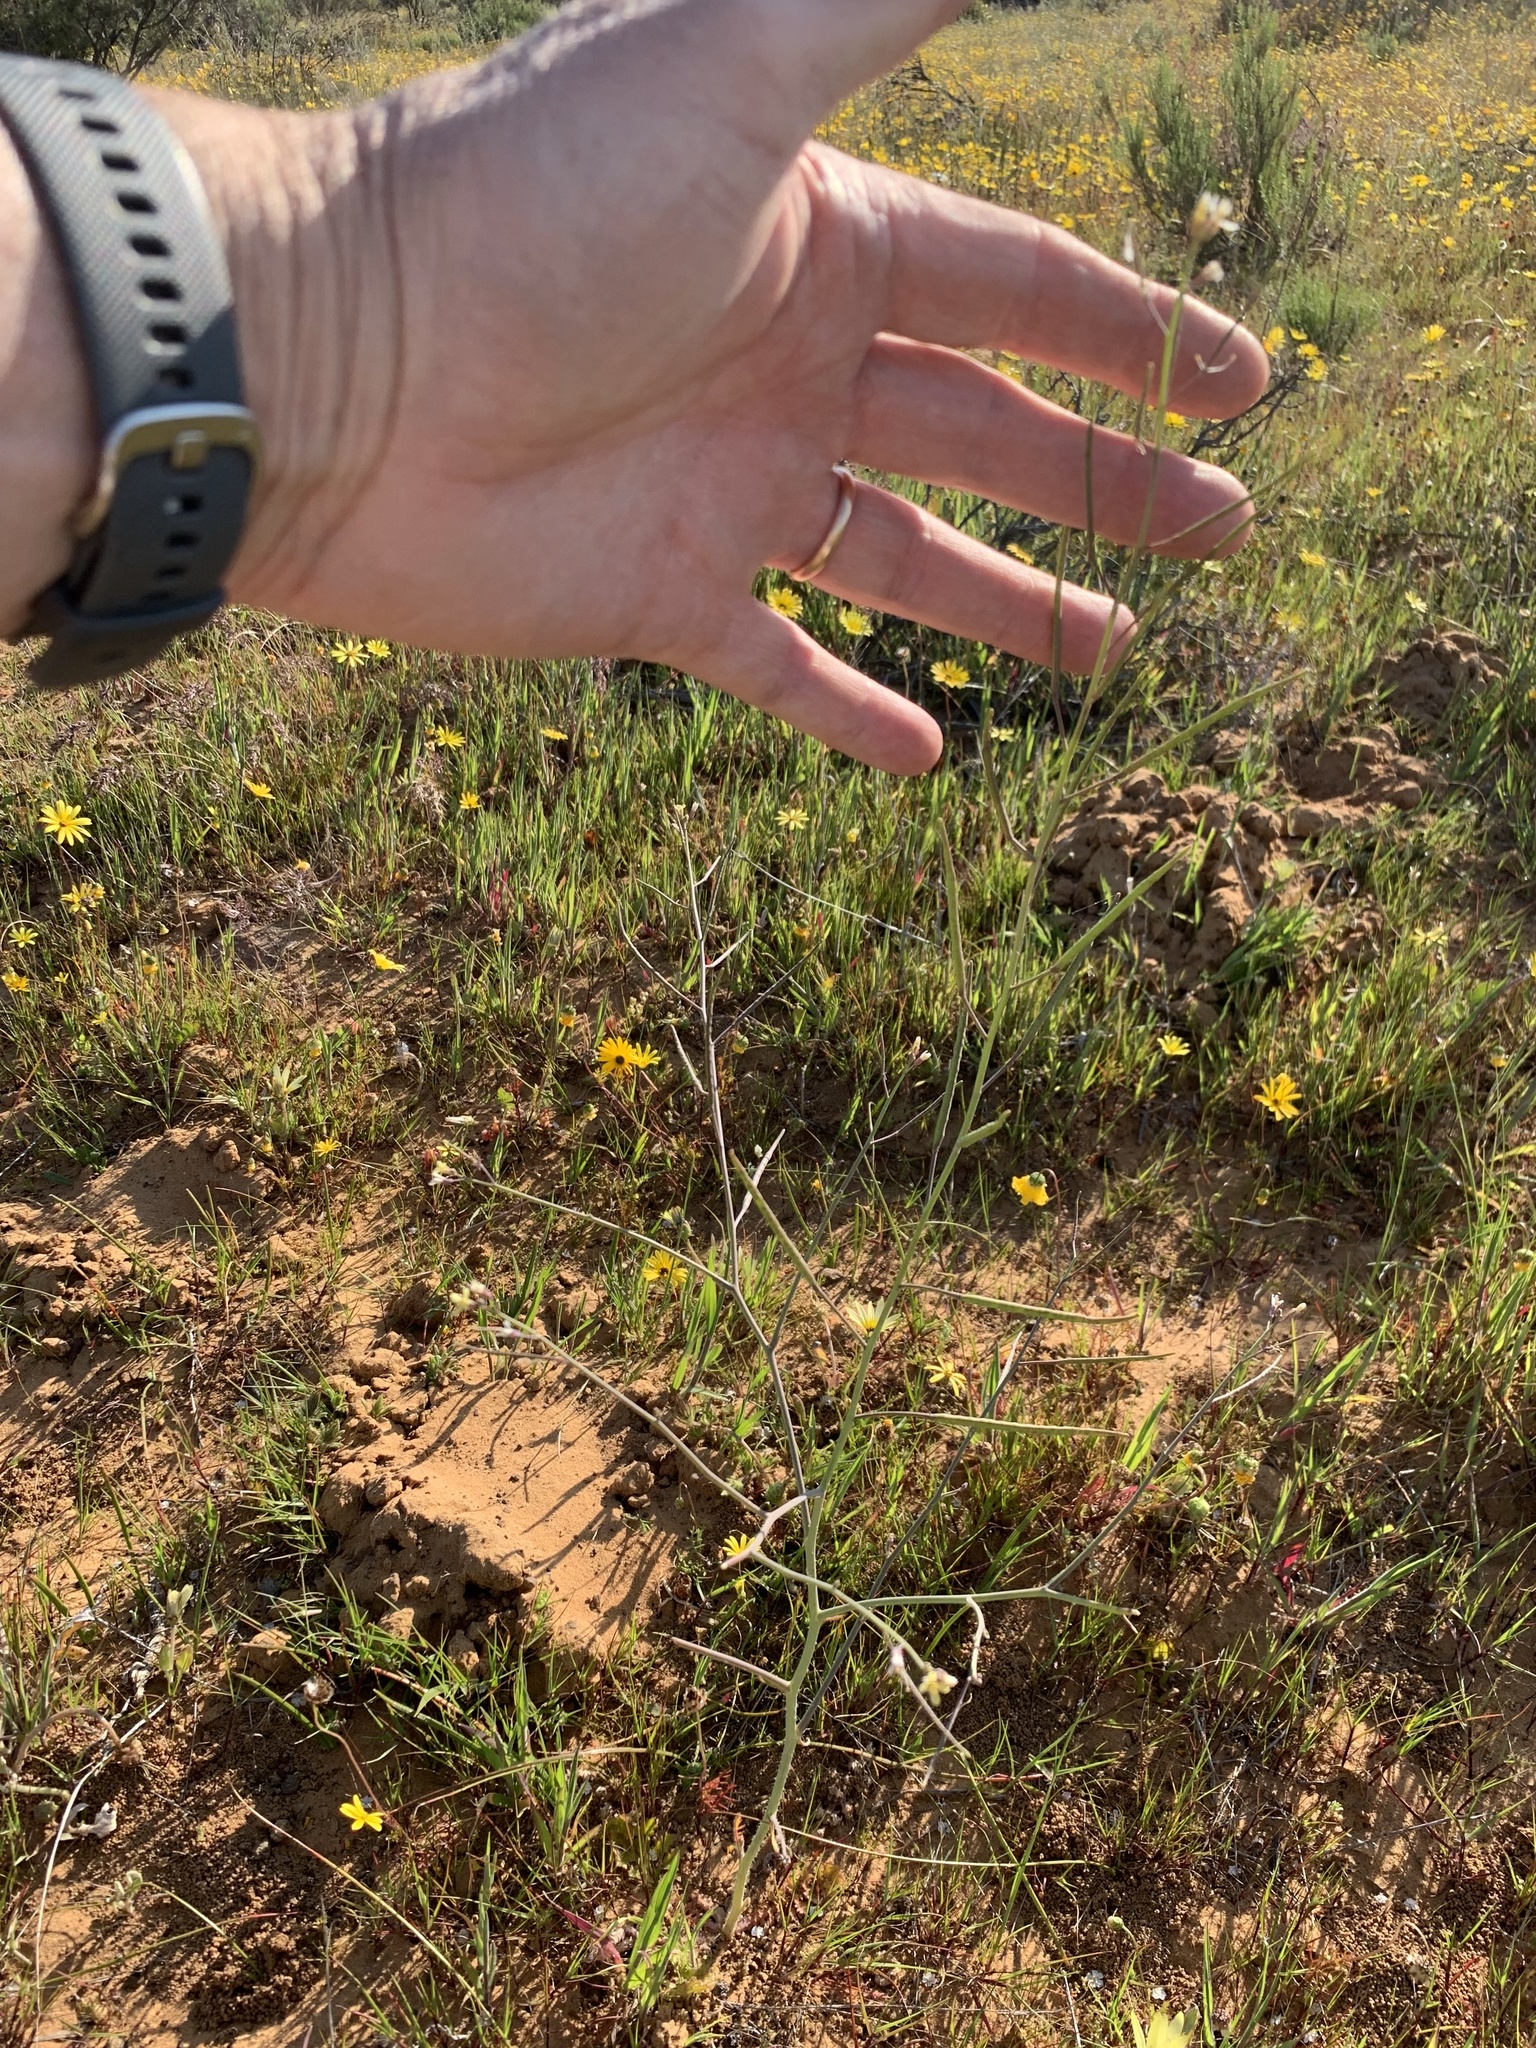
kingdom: Plantae
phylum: Tracheophyta
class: Magnoliopsida
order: Brassicales
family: Brassicaceae
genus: Brassica
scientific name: Brassica tournefortii
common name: Pale cabbage
